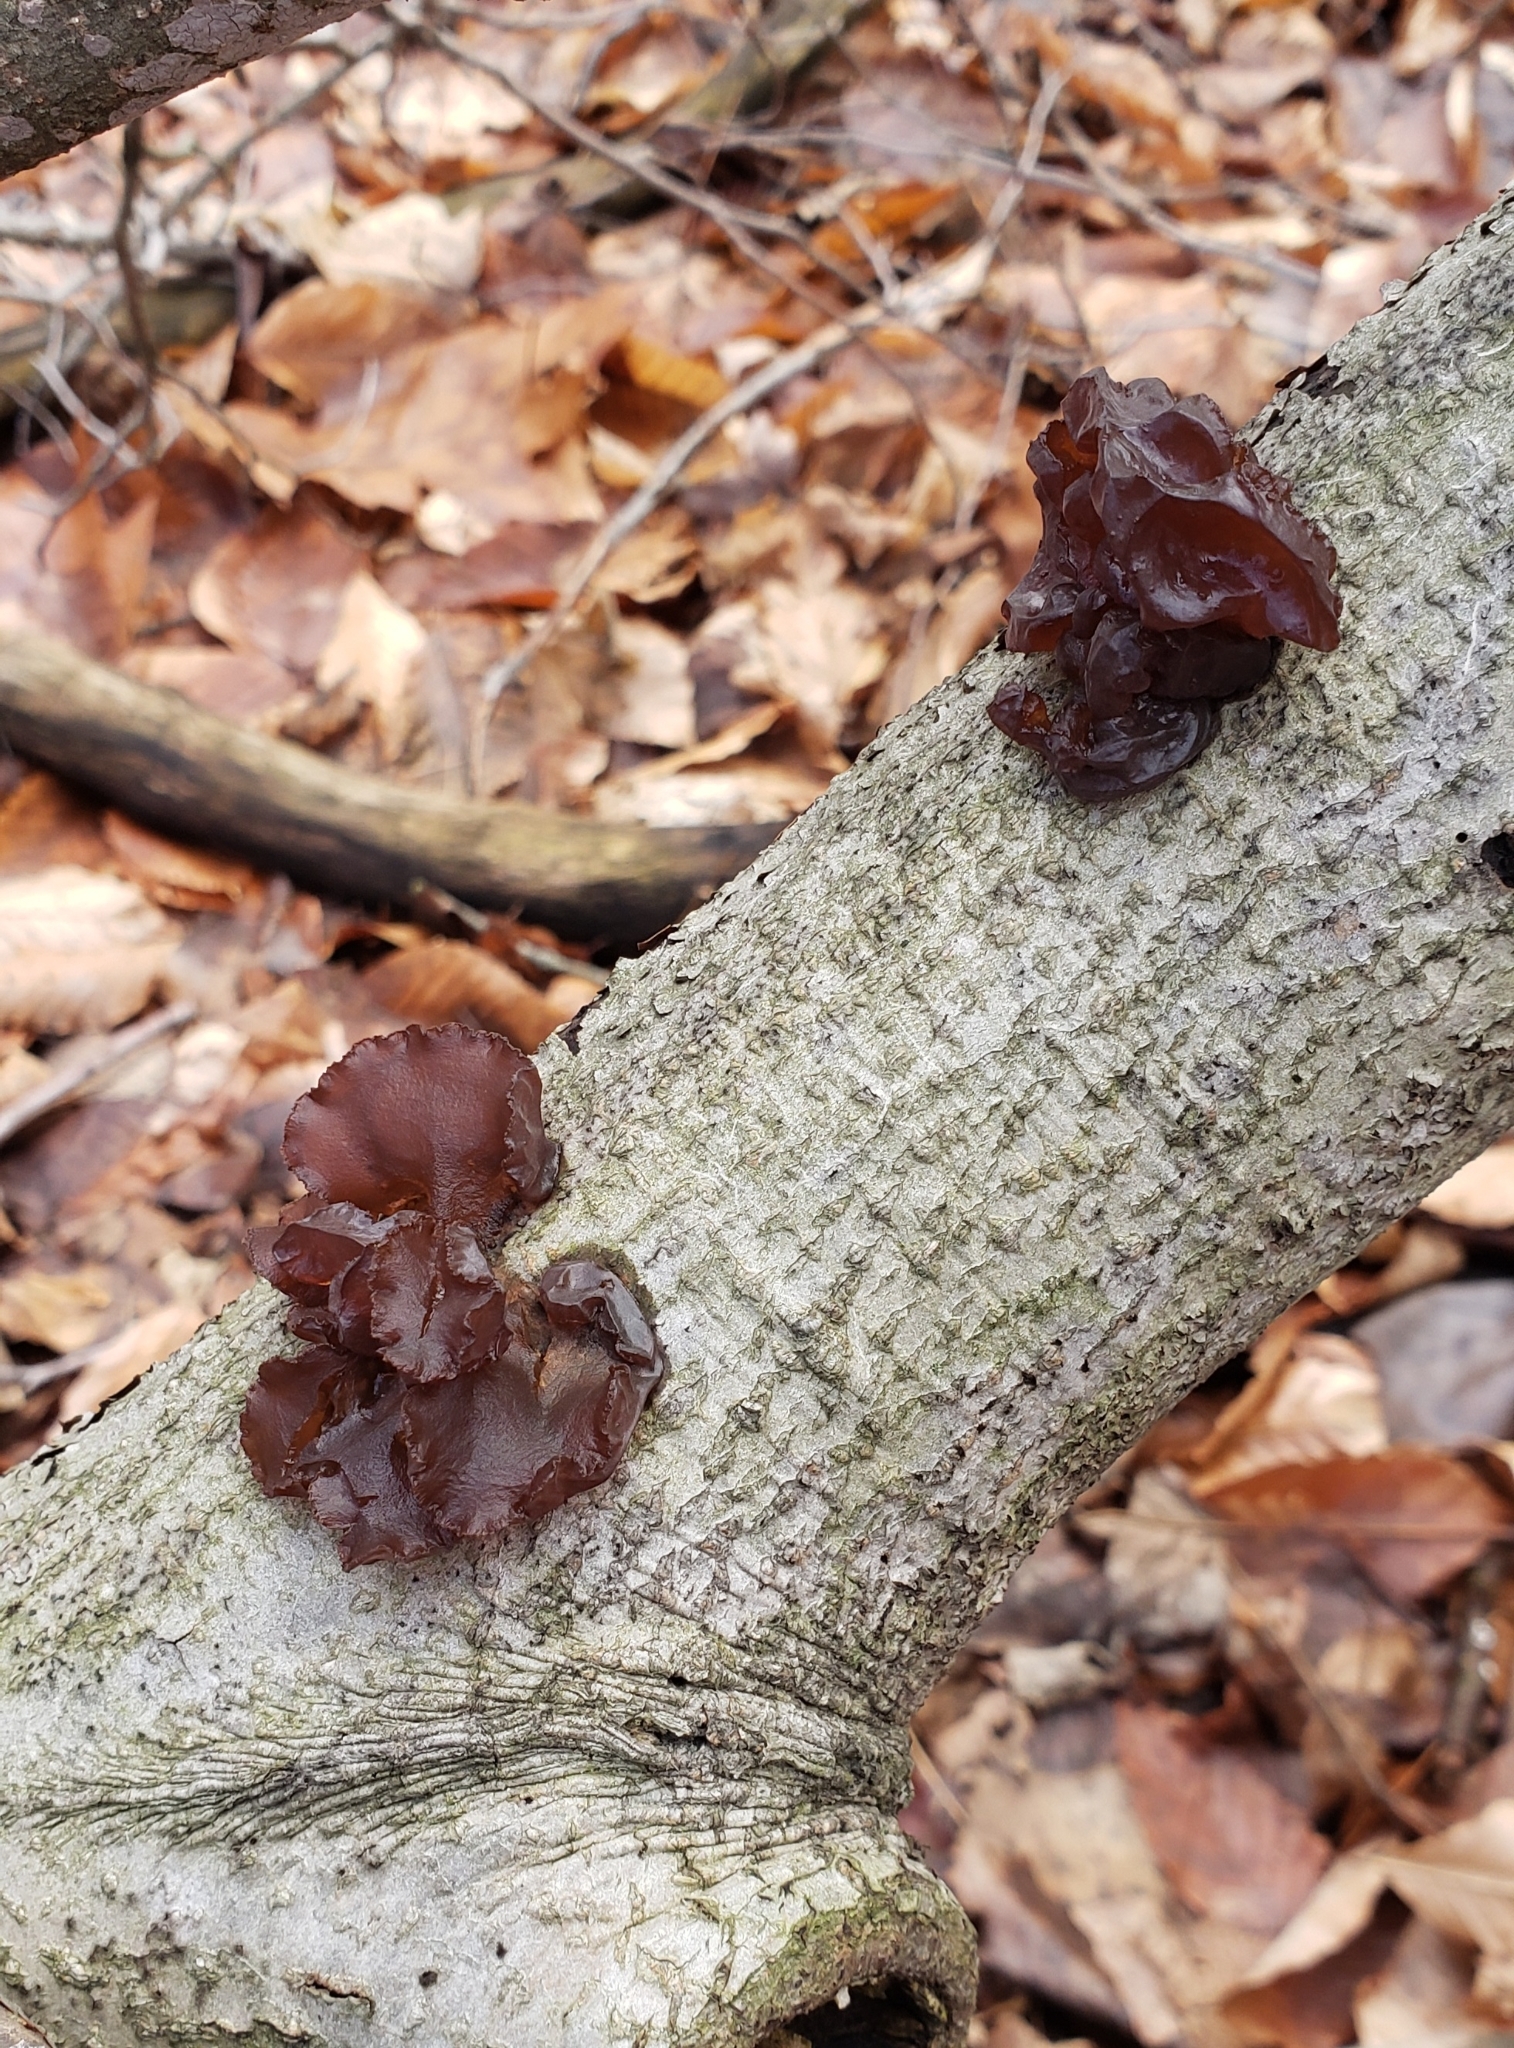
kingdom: Fungi
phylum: Basidiomycota
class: Agaricomycetes
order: Auriculariales
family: Auriculariaceae
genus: Exidia
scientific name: Exidia
